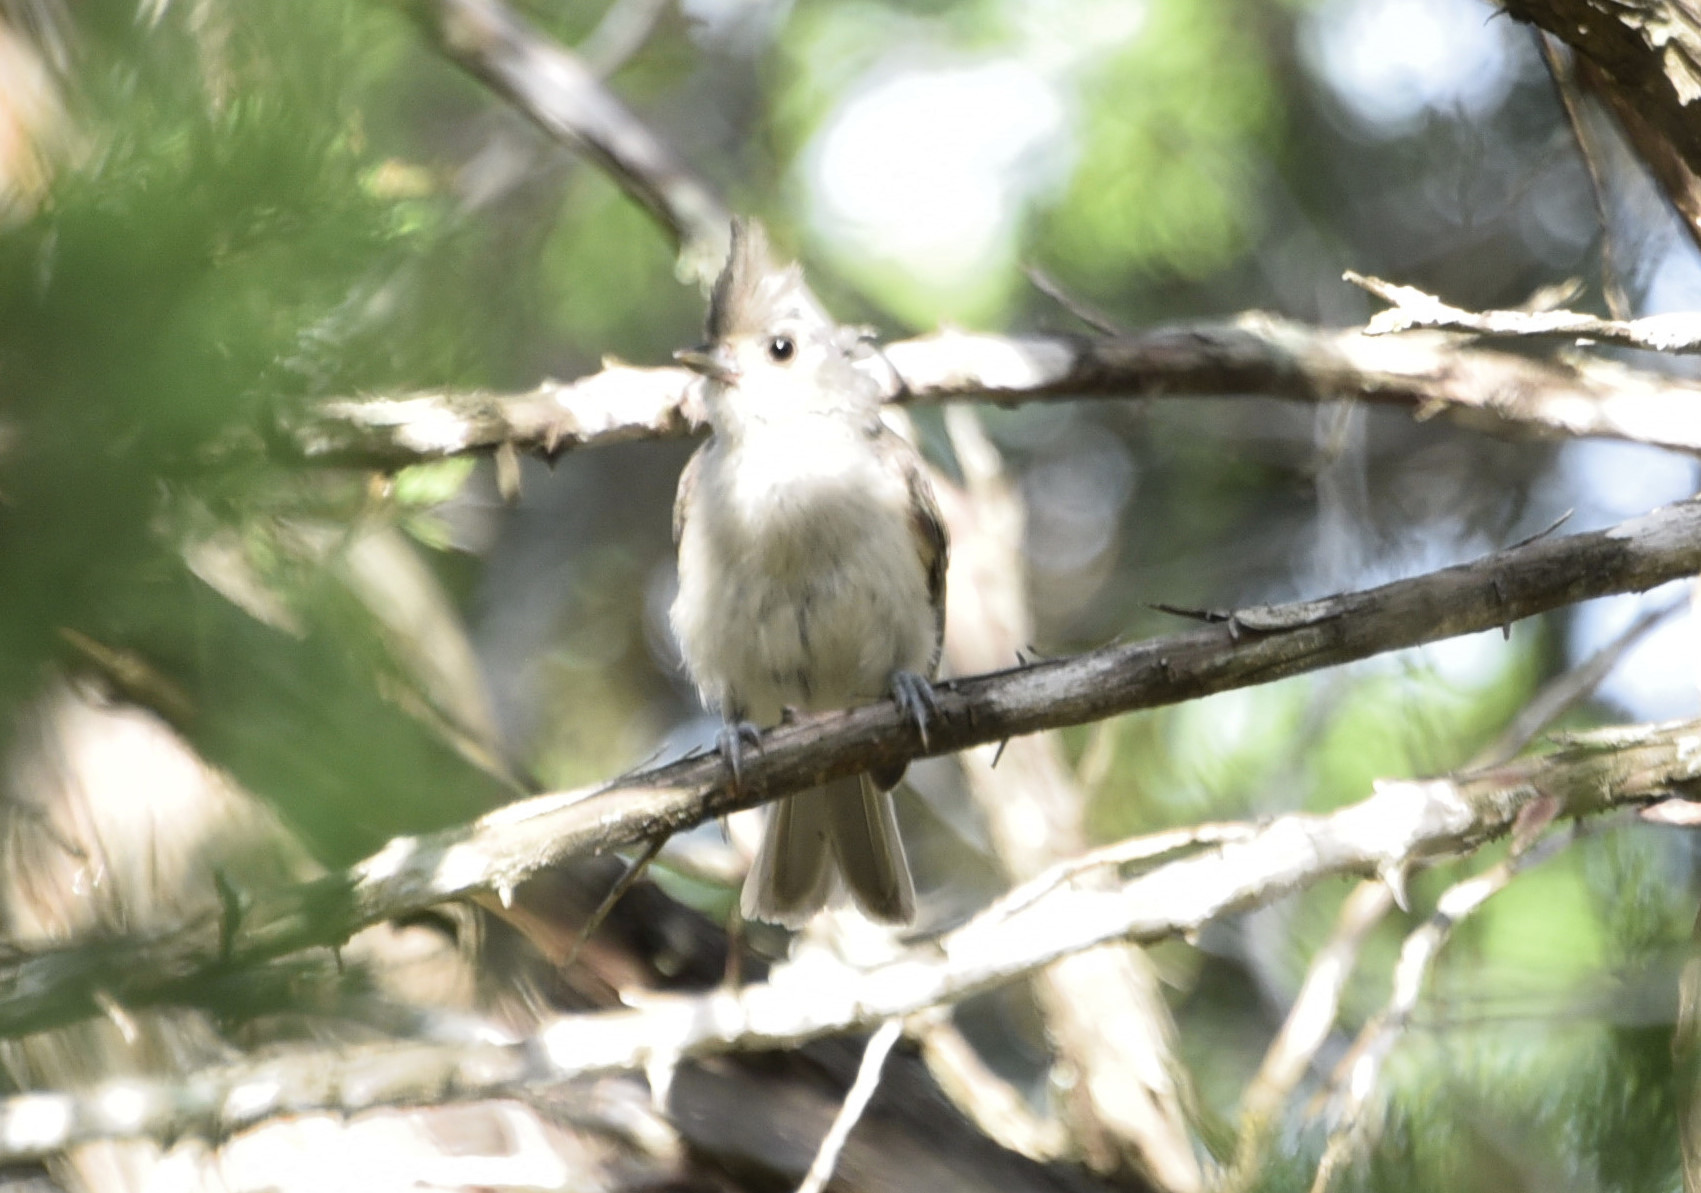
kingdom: Animalia
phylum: Chordata
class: Aves
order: Passeriformes
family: Paridae
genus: Baeolophus
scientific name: Baeolophus atricristatus
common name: Black-crested titmouse
